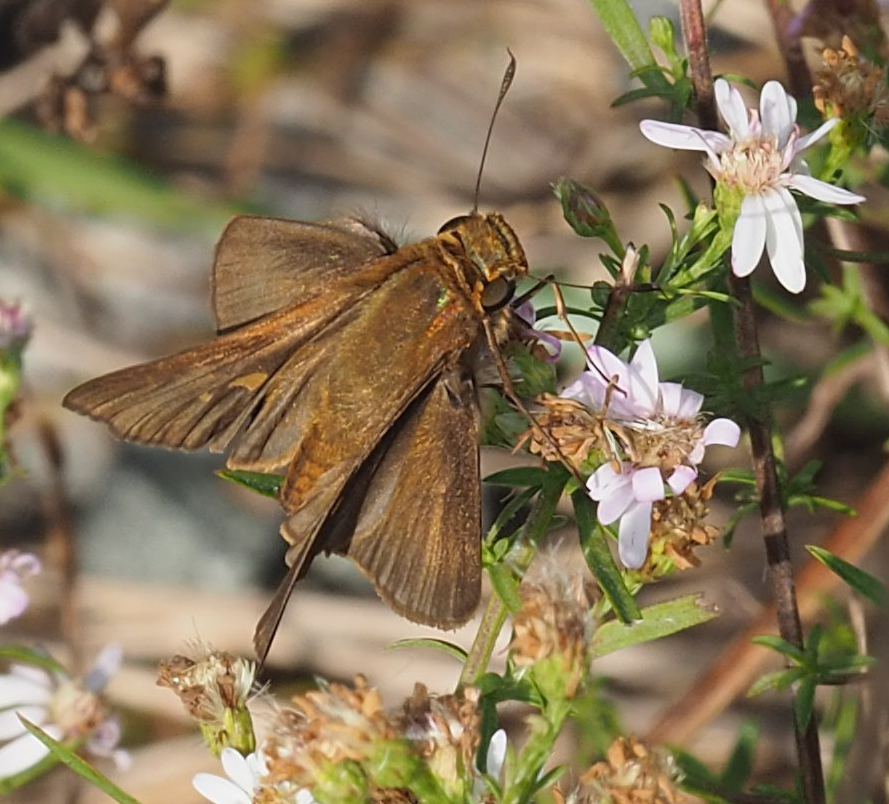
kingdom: Animalia
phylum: Arthropoda
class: Insecta
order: Lepidoptera
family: Hesperiidae
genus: Panoquina
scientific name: Panoquina ocola
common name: Ocola skipper
